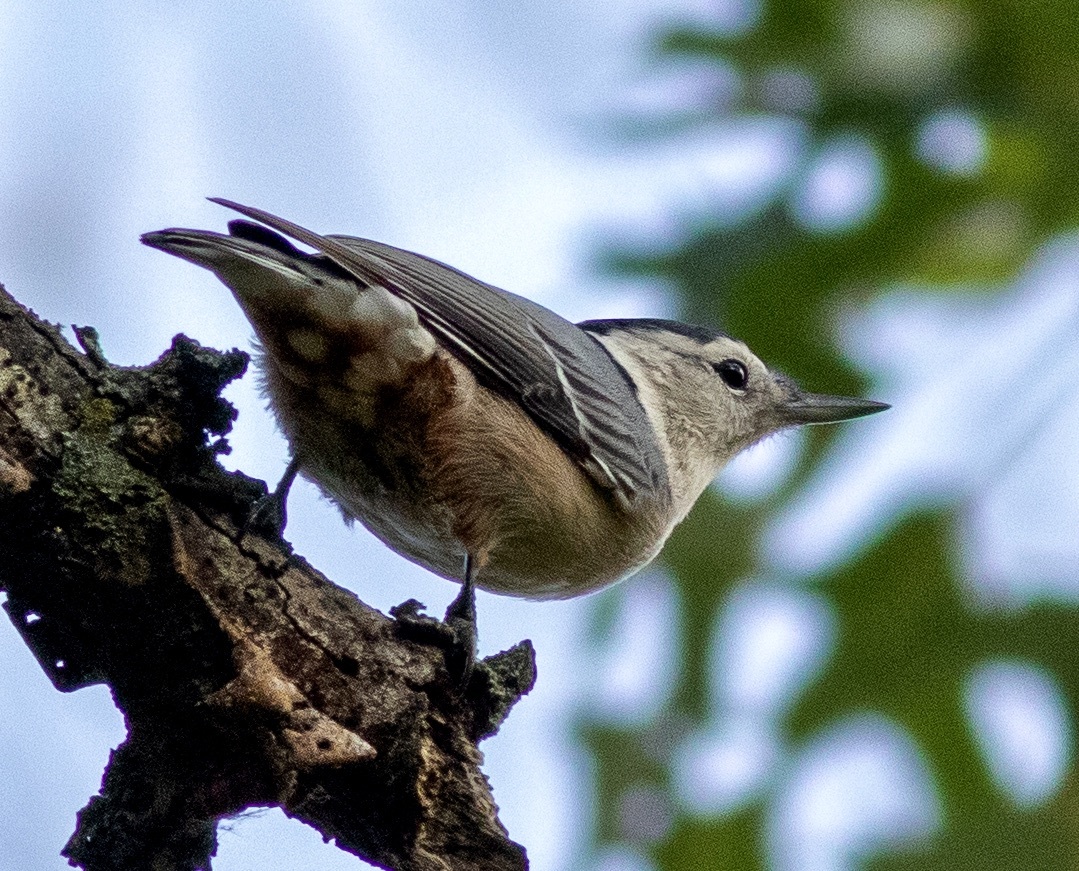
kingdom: Animalia
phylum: Chordata
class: Aves
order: Passeriformes
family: Sittidae
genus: Sitta
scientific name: Sitta carolinensis
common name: White-breasted nuthatch
